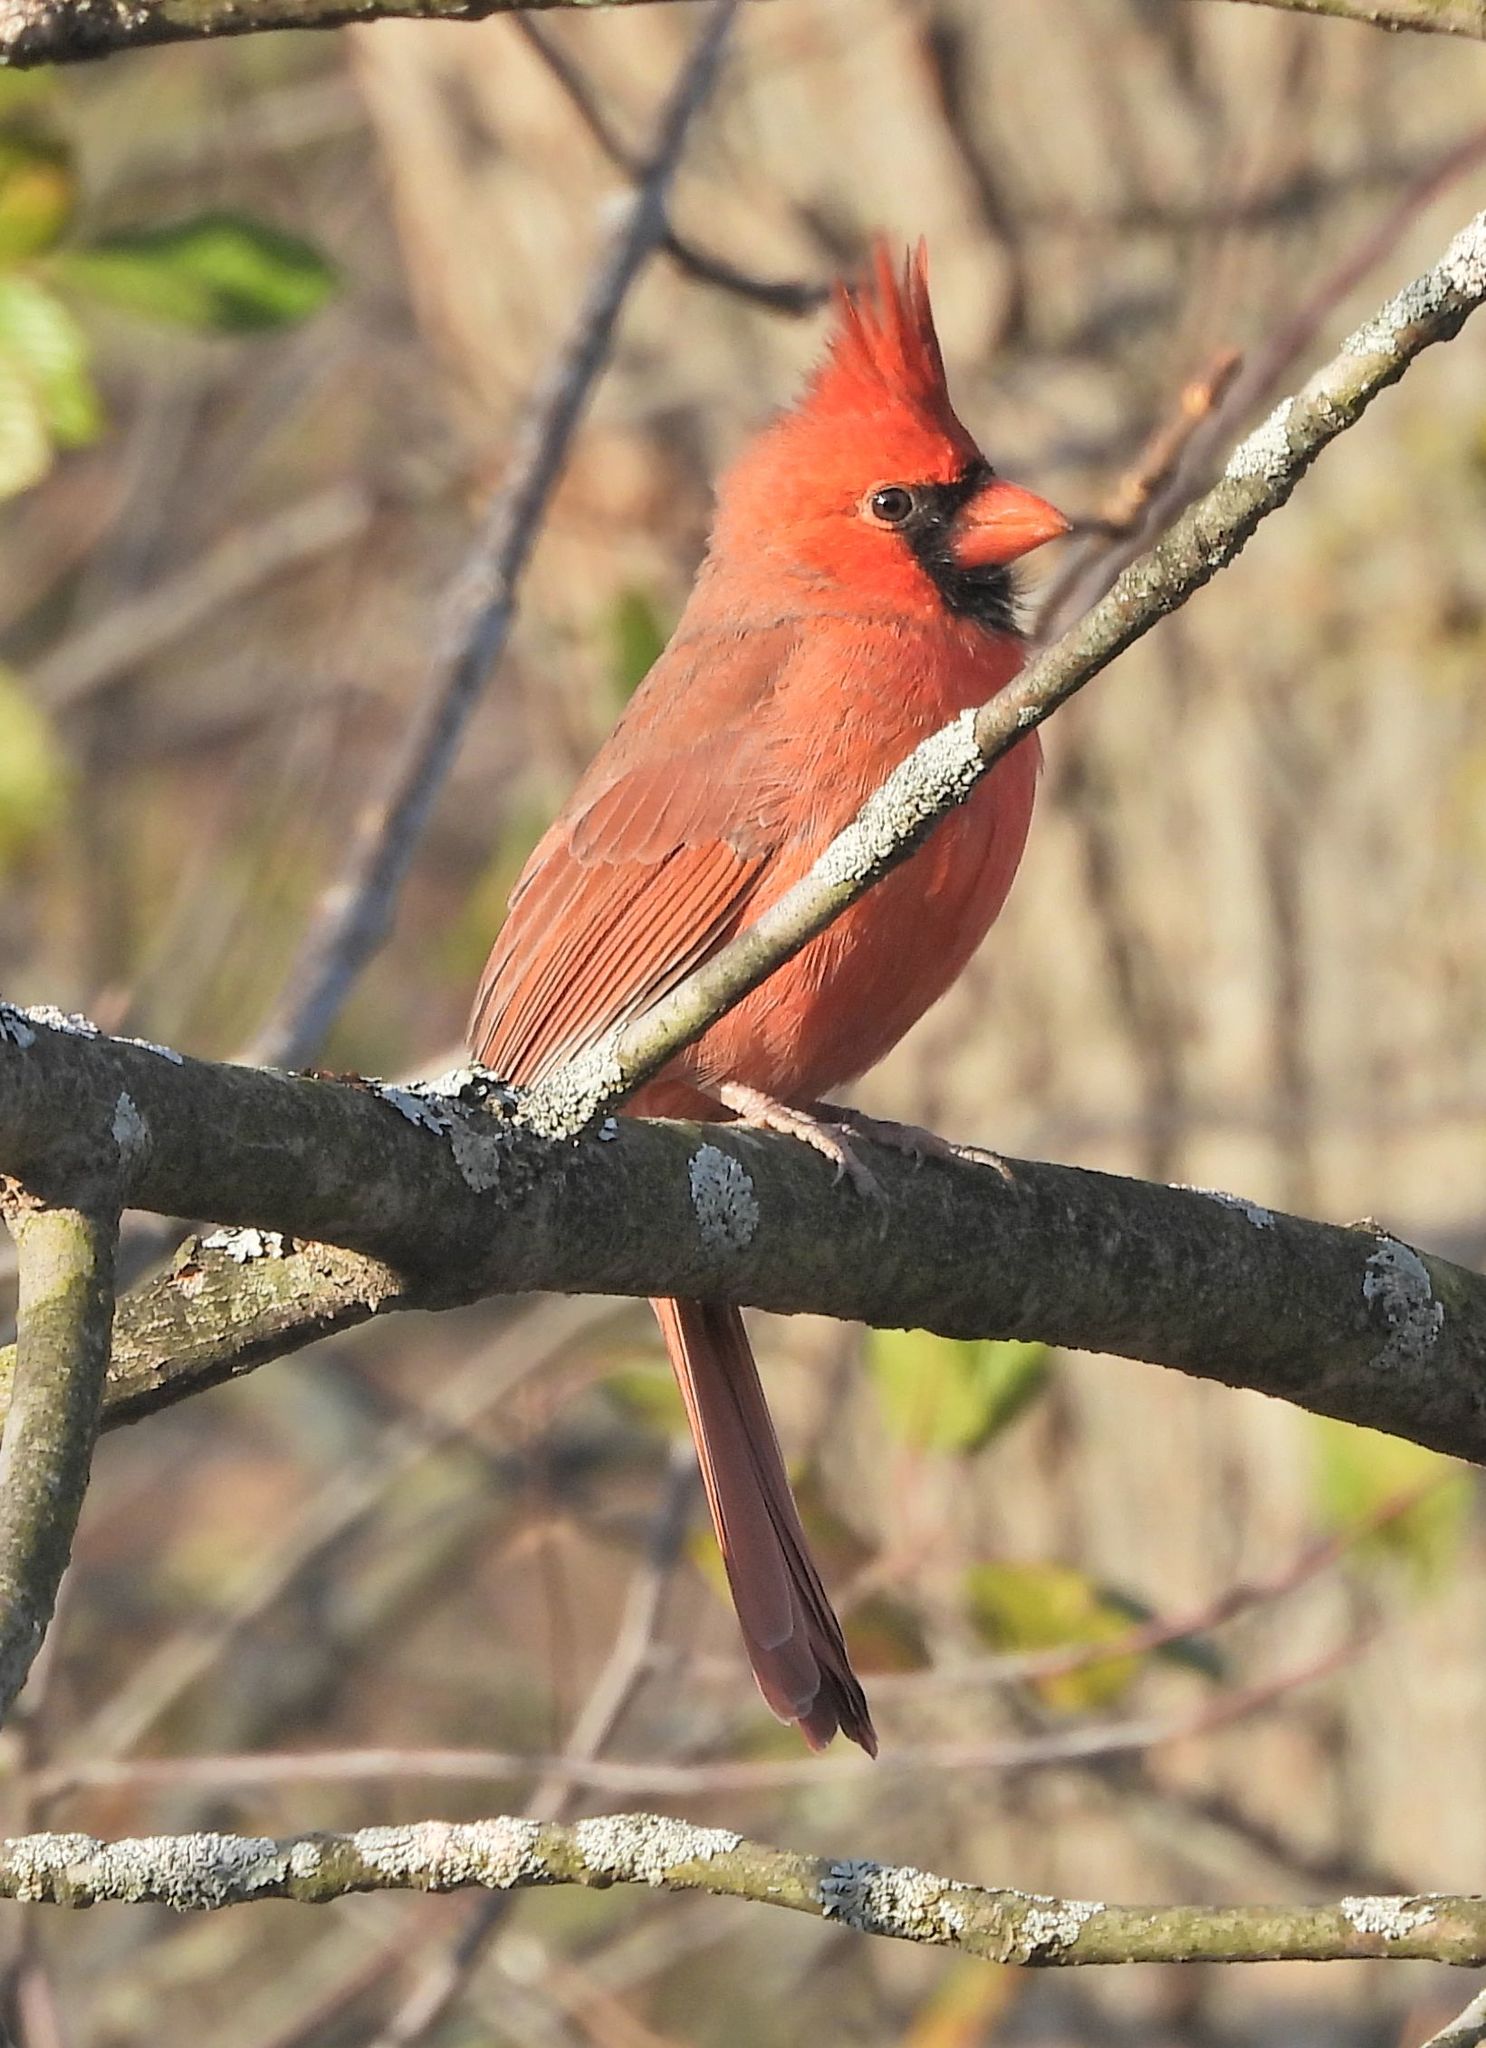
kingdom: Animalia
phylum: Chordata
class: Aves
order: Passeriformes
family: Cardinalidae
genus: Cardinalis
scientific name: Cardinalis cardinalis
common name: Northern cardinal
